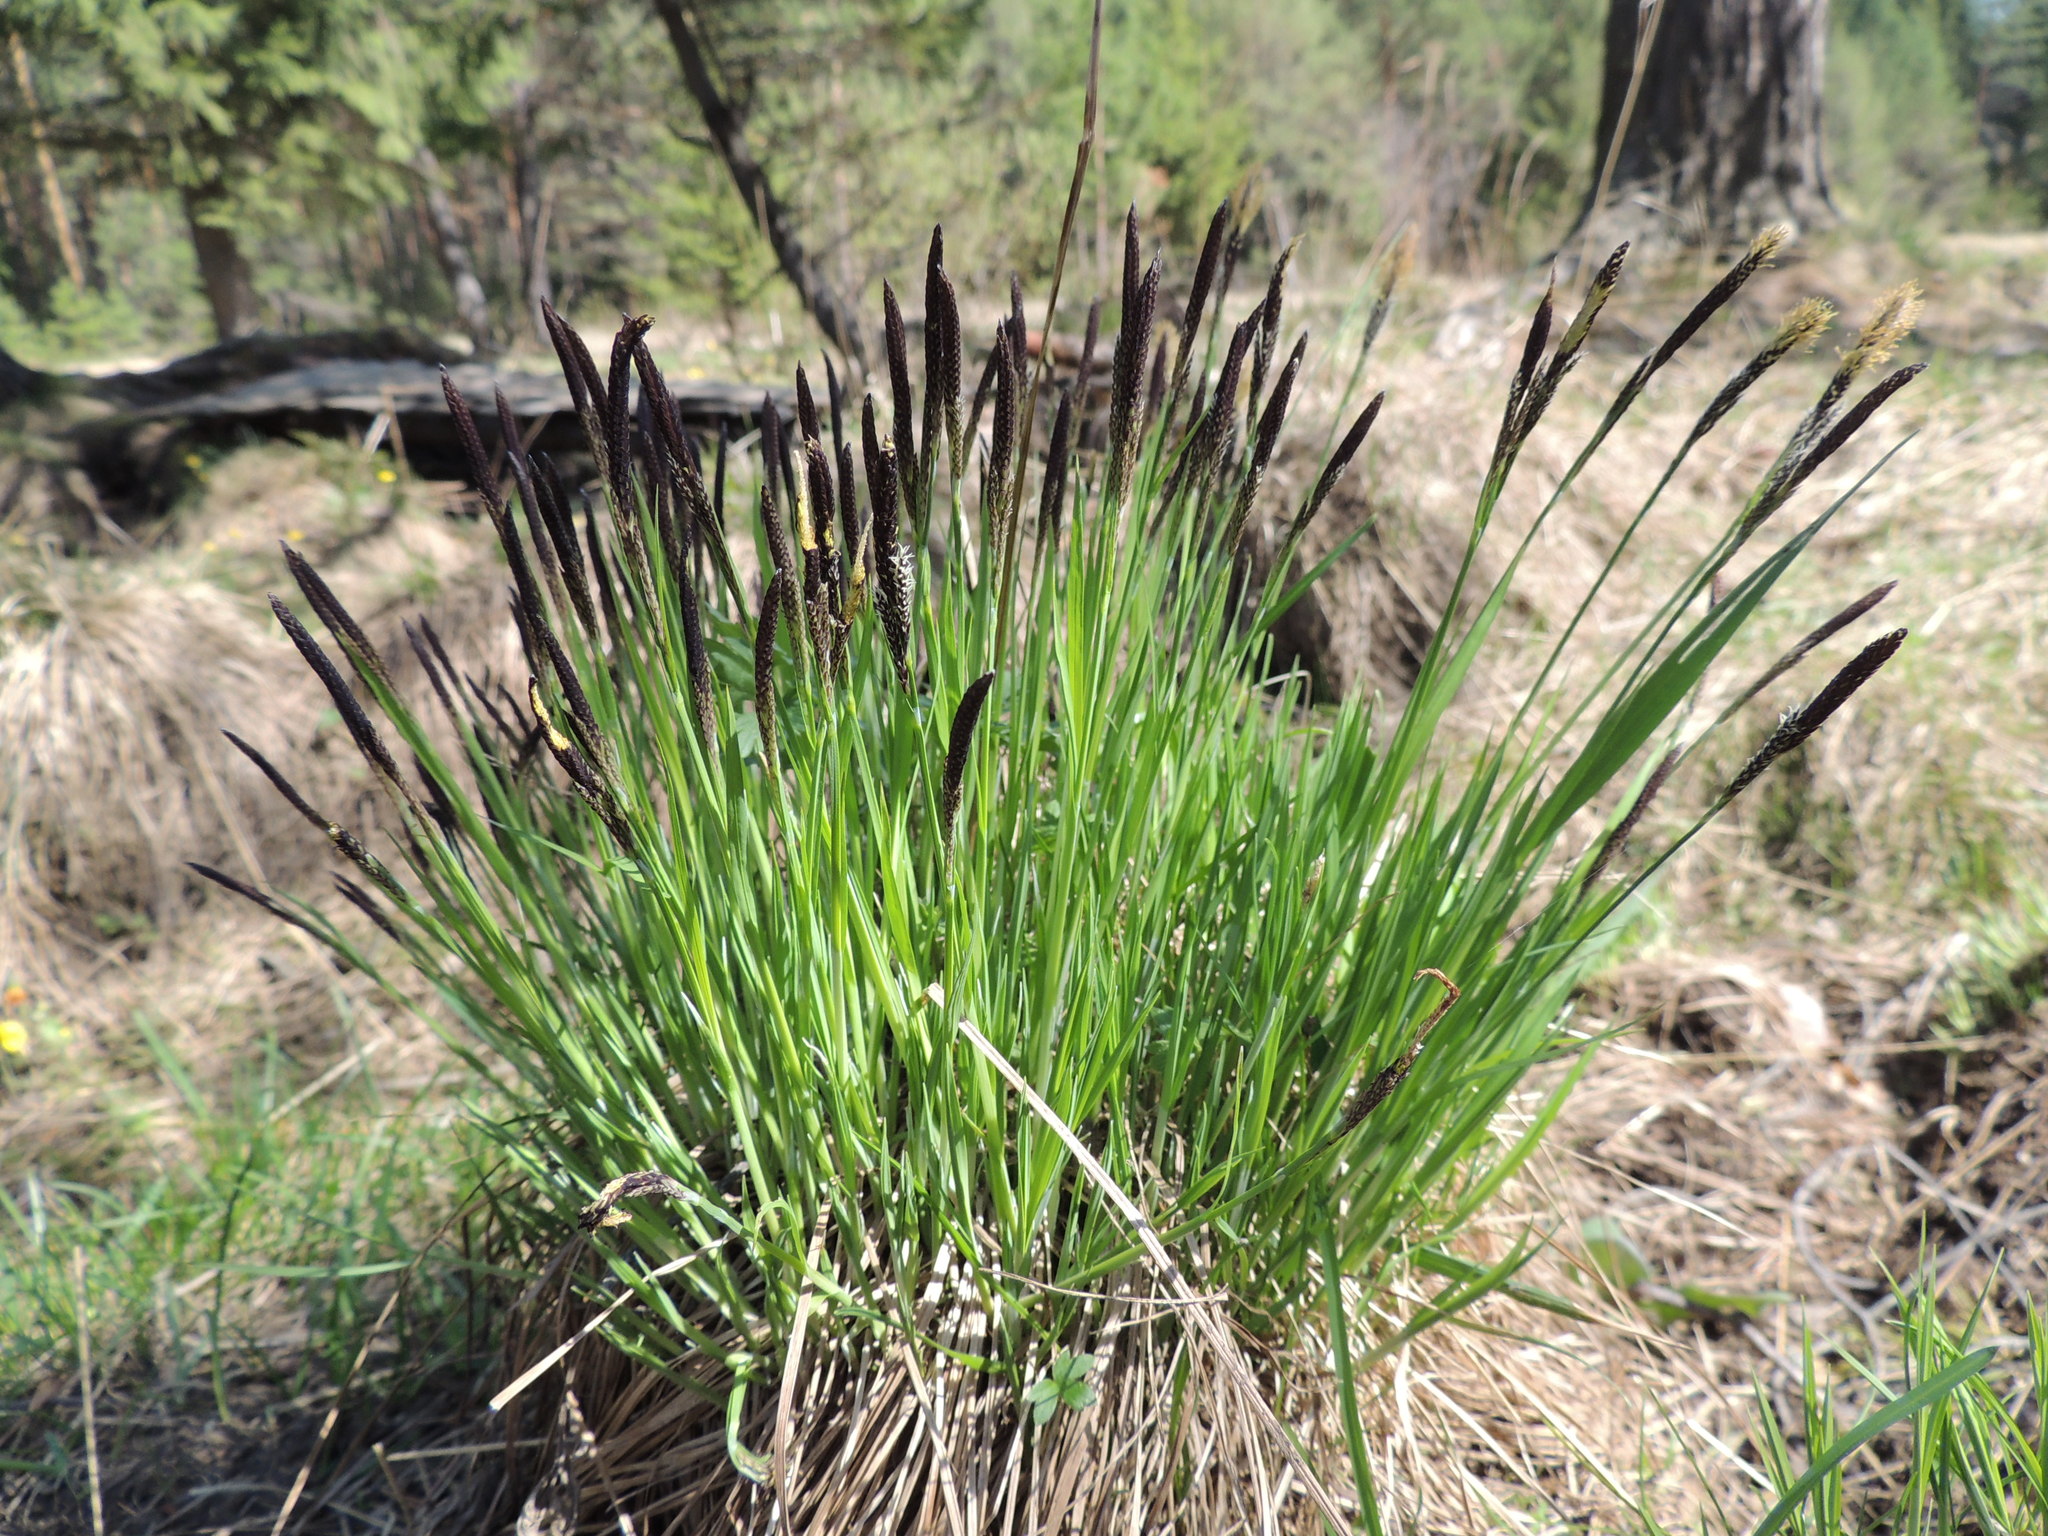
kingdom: Plantae
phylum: Tracheophyta
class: Liliopsida
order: Poales
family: Cyperaceae
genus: Carex
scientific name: Carex cespitosa
